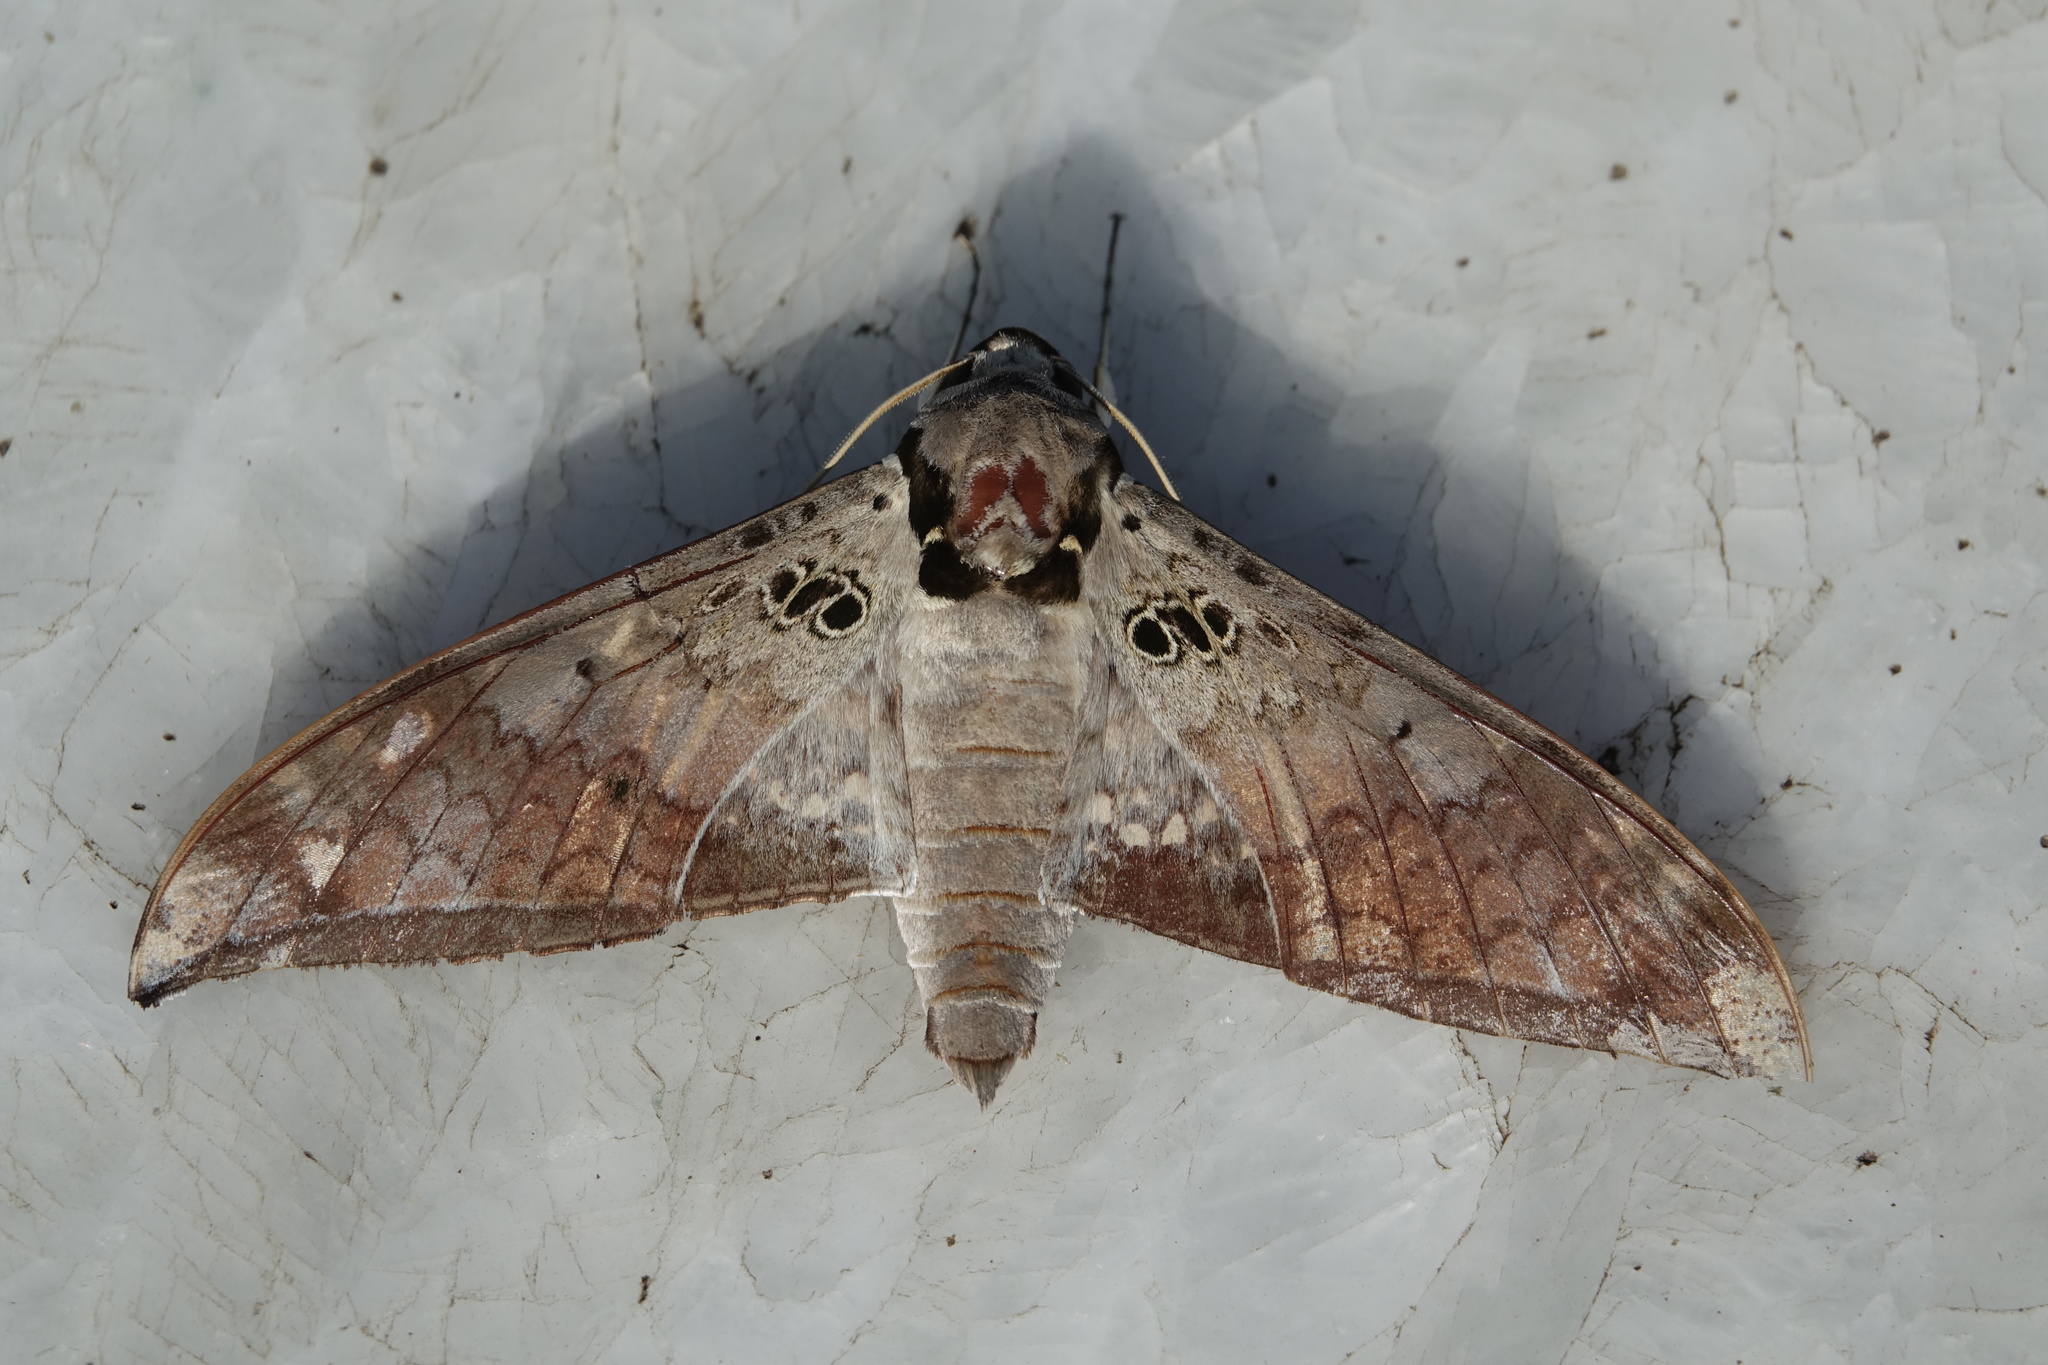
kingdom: Animalia
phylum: Arthropoda
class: Insecta
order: Lepidoptera
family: Sphingidae
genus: Ambulyx
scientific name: Ambulyx canescens
